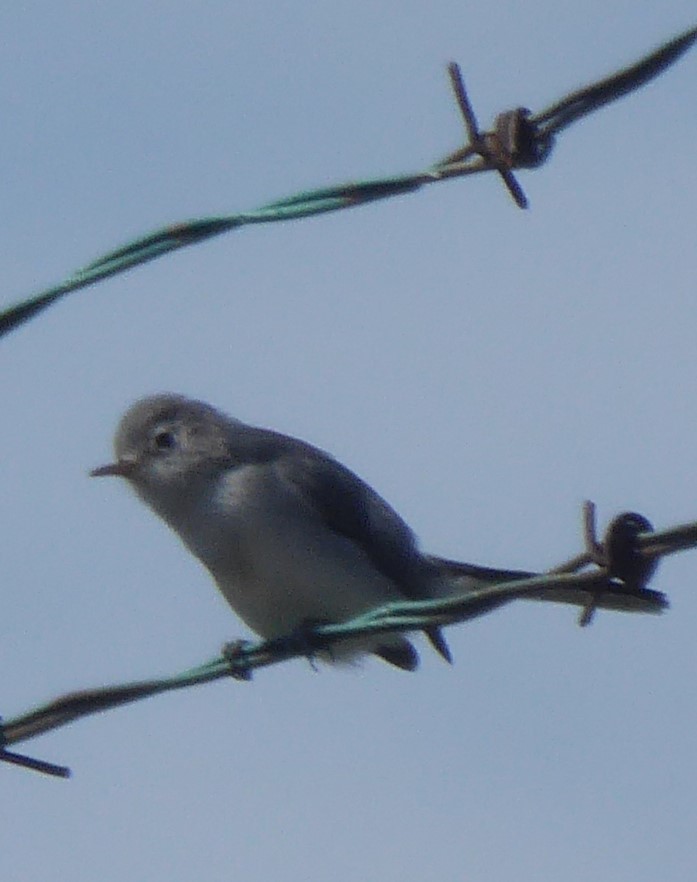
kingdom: Animalia
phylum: Chordata
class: Aves
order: Passeriformes
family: Polioptilidae
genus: Polioptila
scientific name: Polioptila caerulea
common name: Blue-gray gnatcatcher
